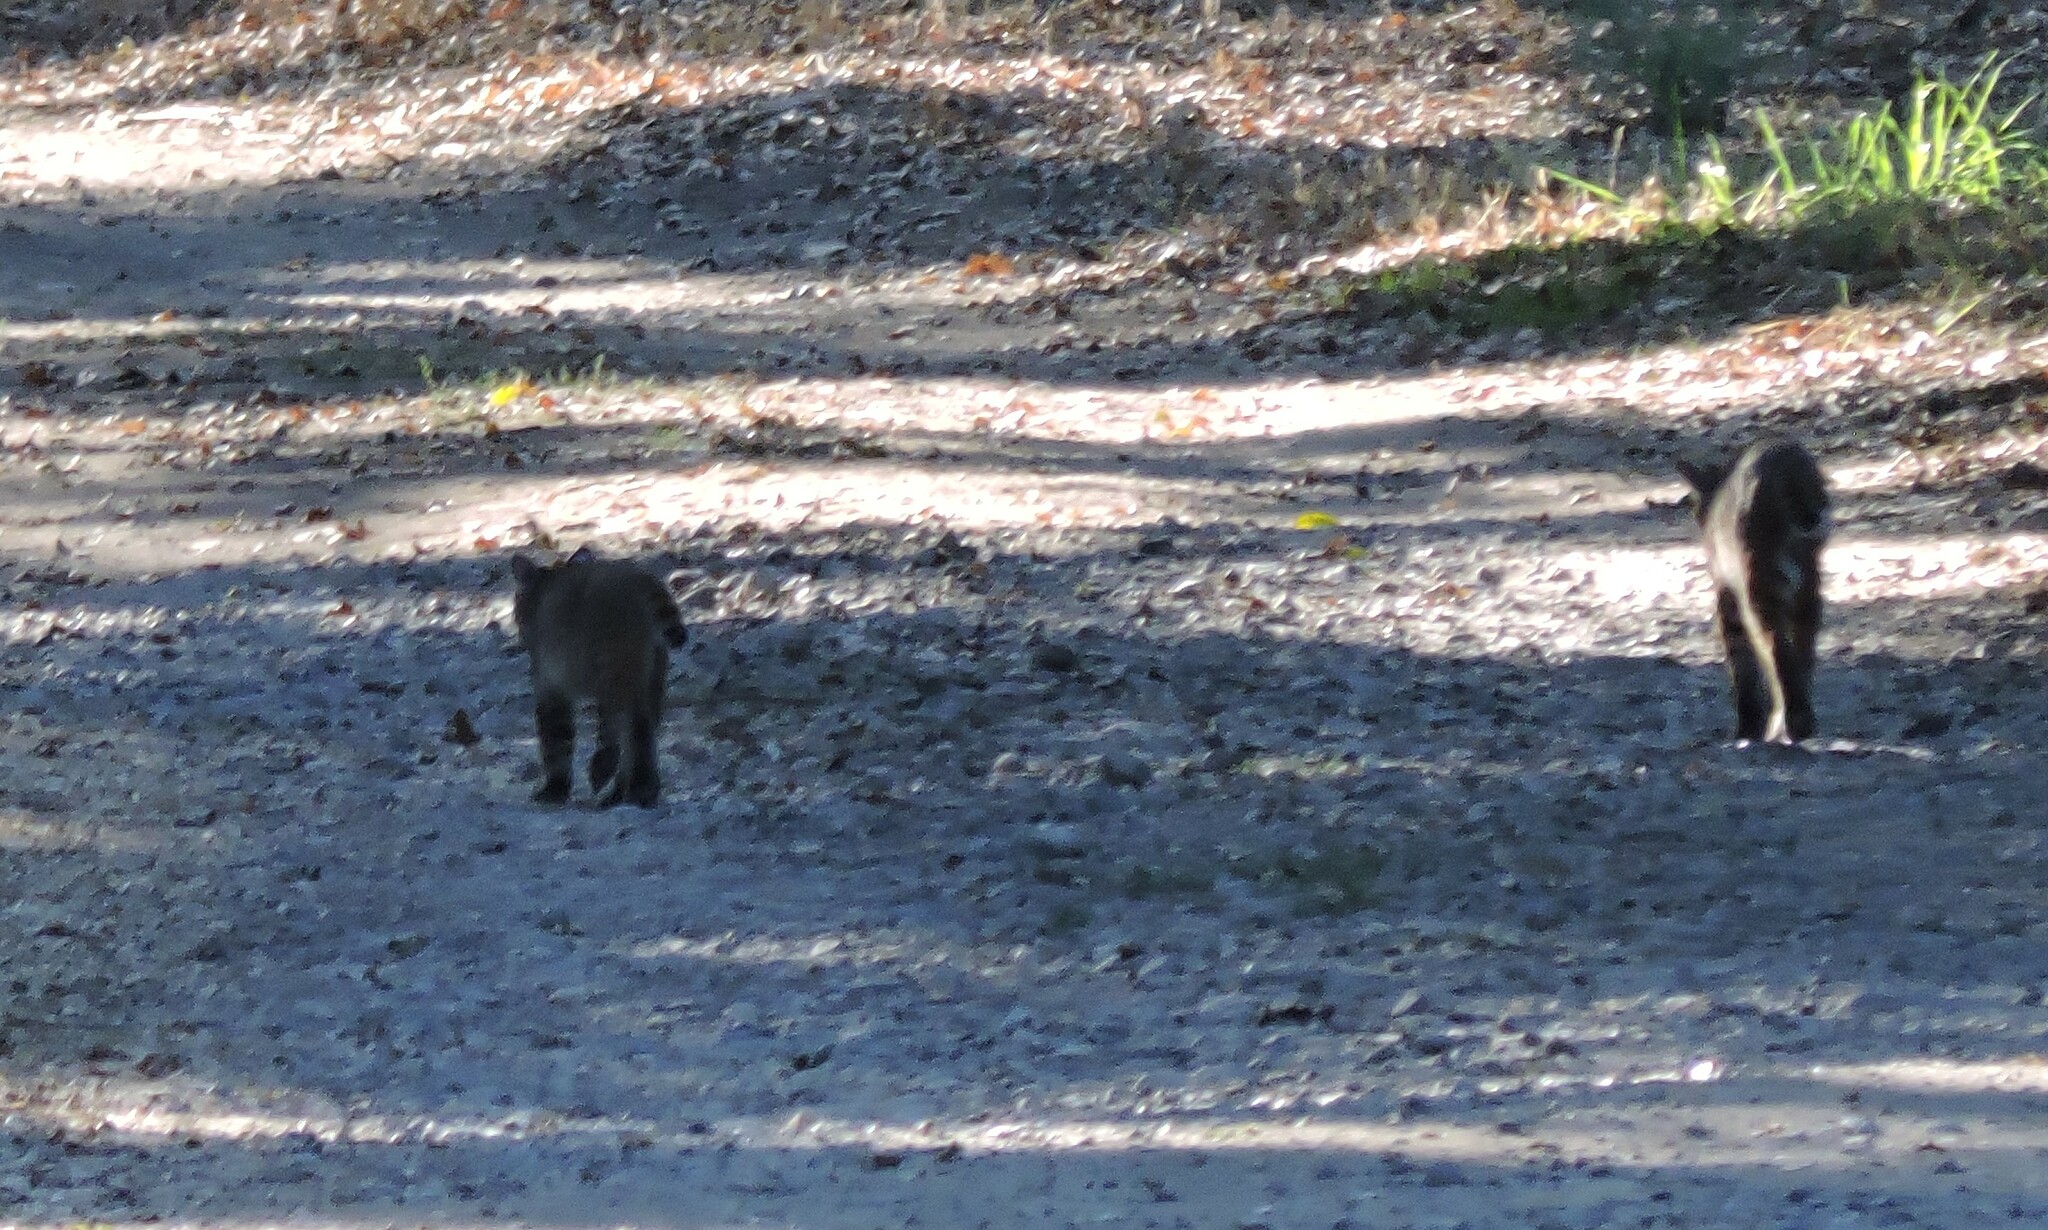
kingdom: Animalia
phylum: Chordata
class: Mammalia
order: Carnivora
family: Felidae
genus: Lynx
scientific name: Lynx rufus
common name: Bobcat
